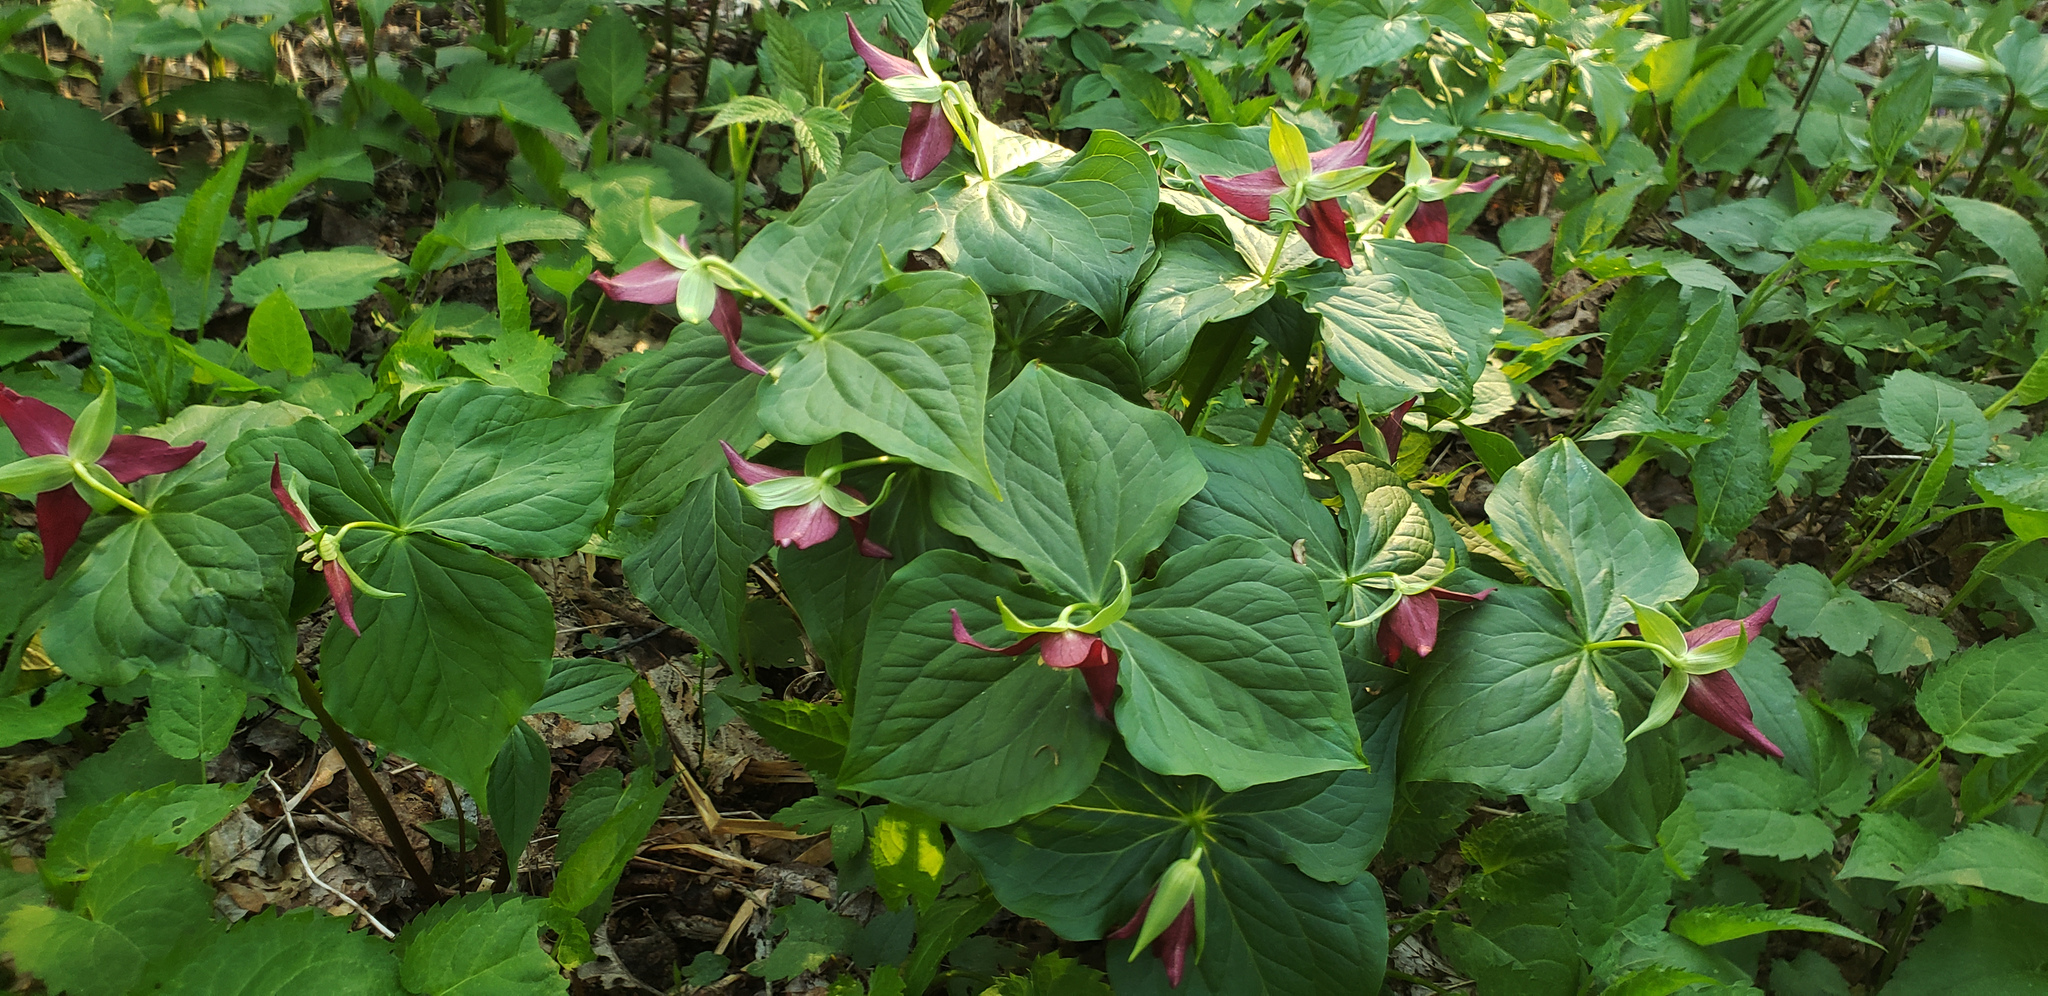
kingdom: Plantae
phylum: Tracheophyta
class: Liliopsida
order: Liliales
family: Melanthiaceae
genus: Trillium
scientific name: Trillium erectum
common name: Purple trillium
